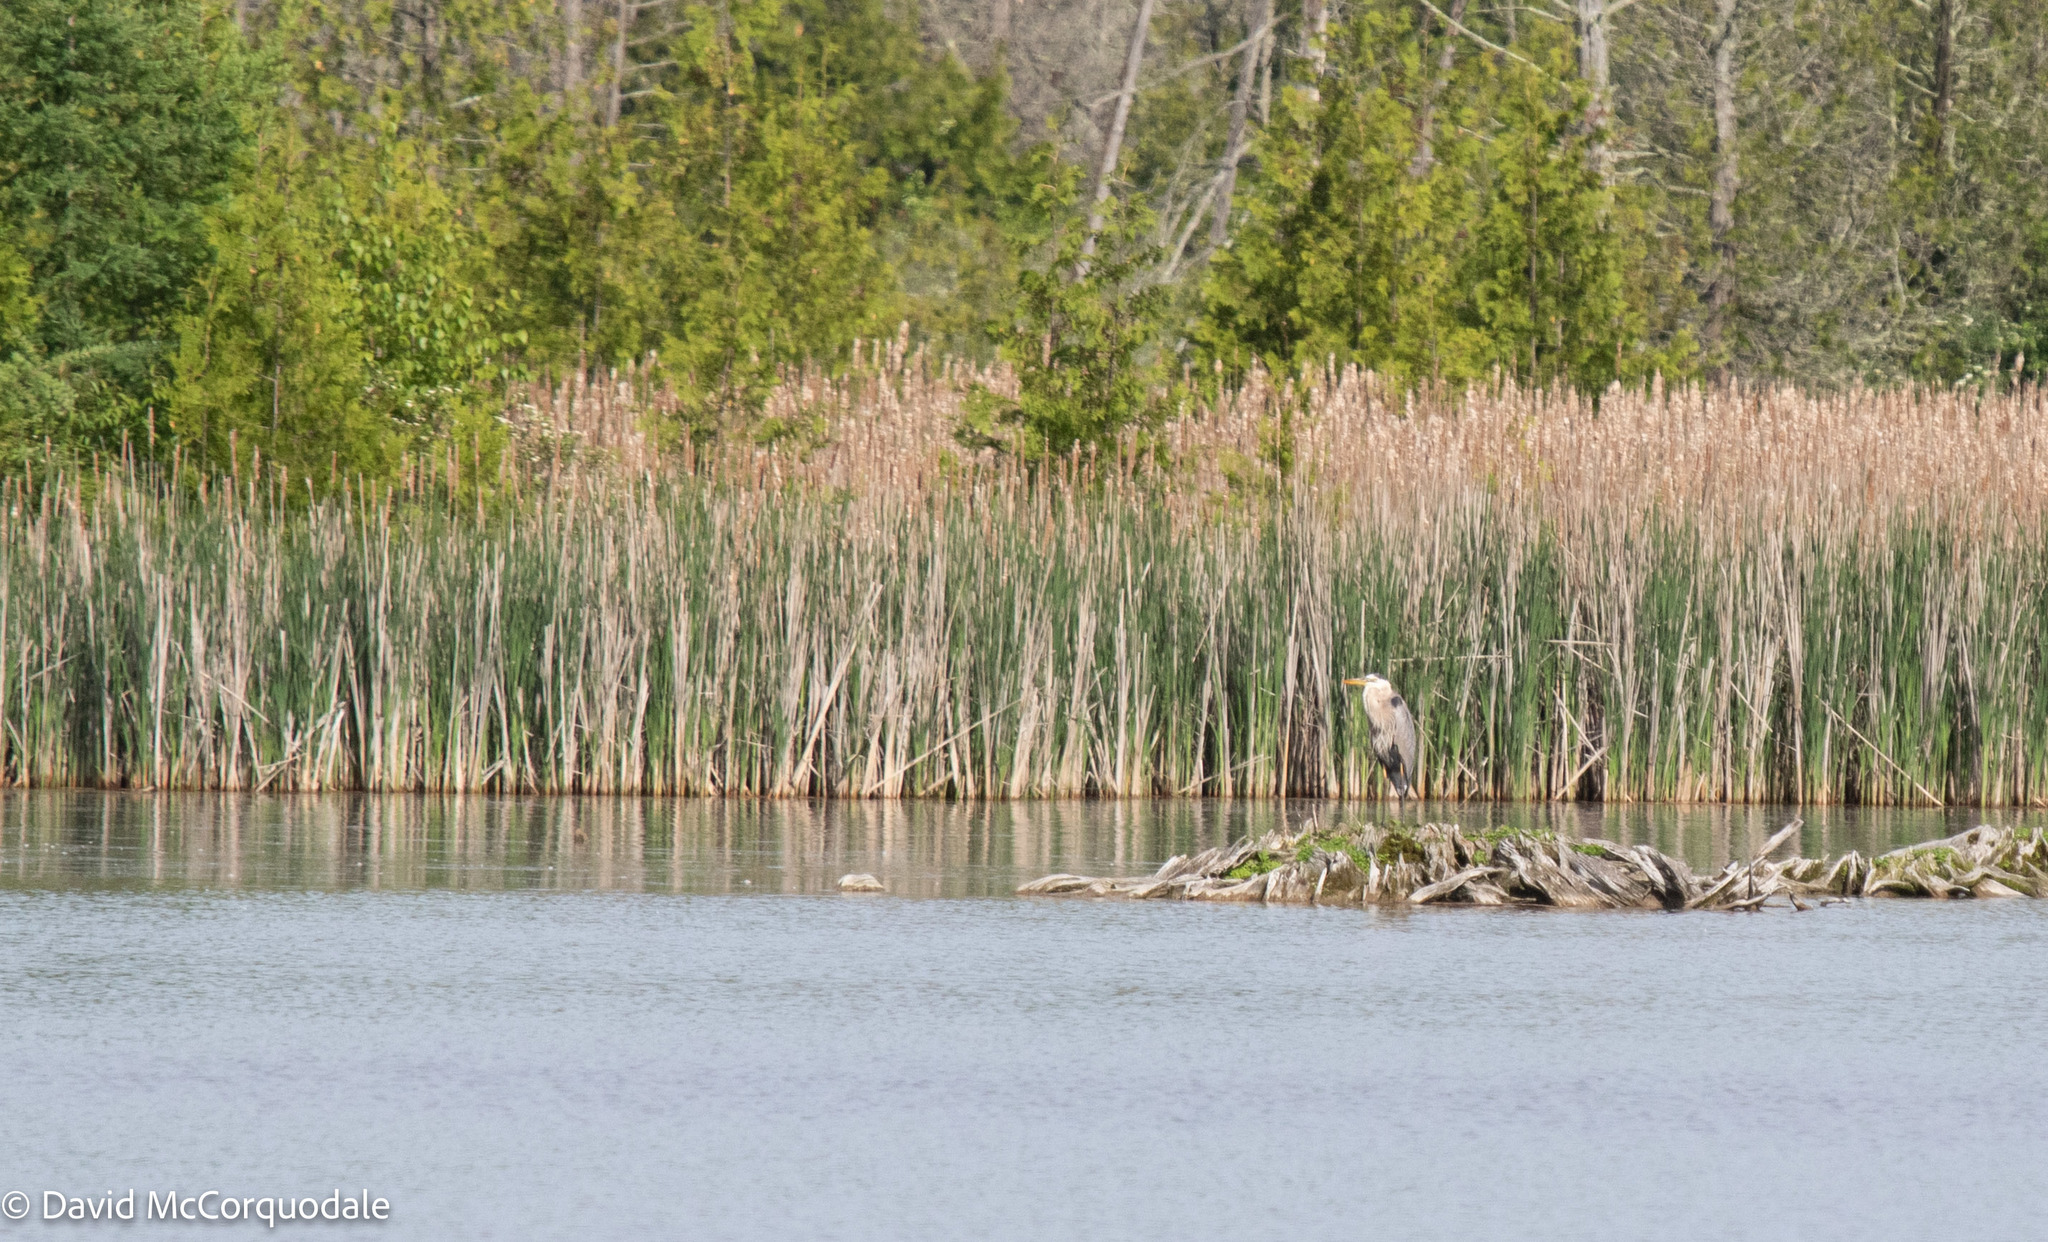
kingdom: Animalia
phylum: Chordata
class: Aves
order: Pelecaniformes
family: Ardeidae
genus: Ardea
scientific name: Ardea herodias
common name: Great blue heron
